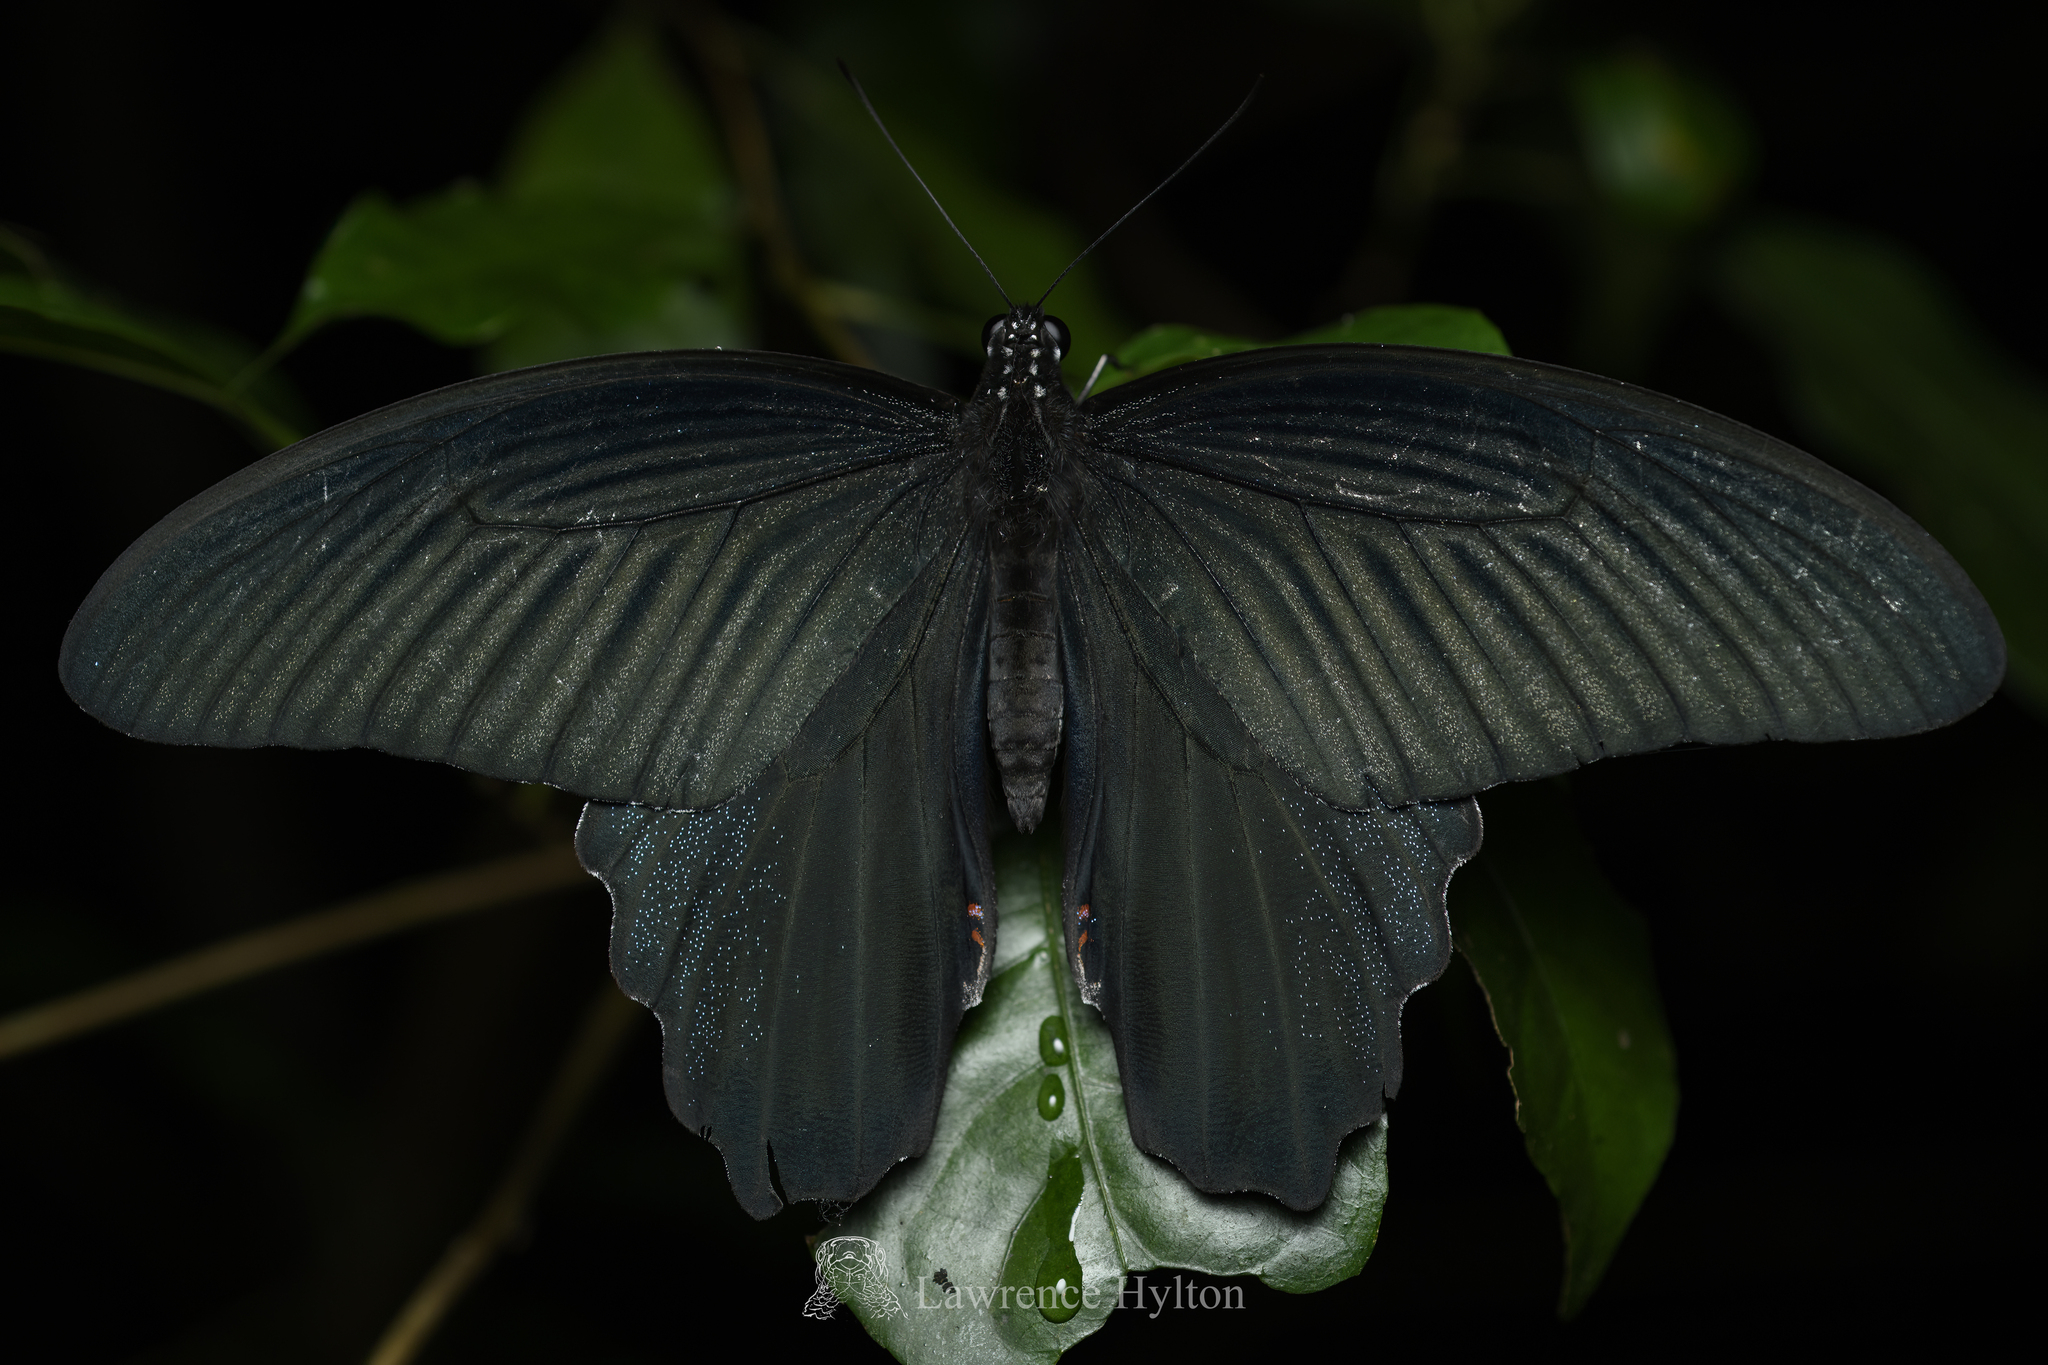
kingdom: Animalia
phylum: Arthropoda
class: Insecta
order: Lepidoptera
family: Papilionidae
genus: Papilio
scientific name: Papilio protenor
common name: Spangle
